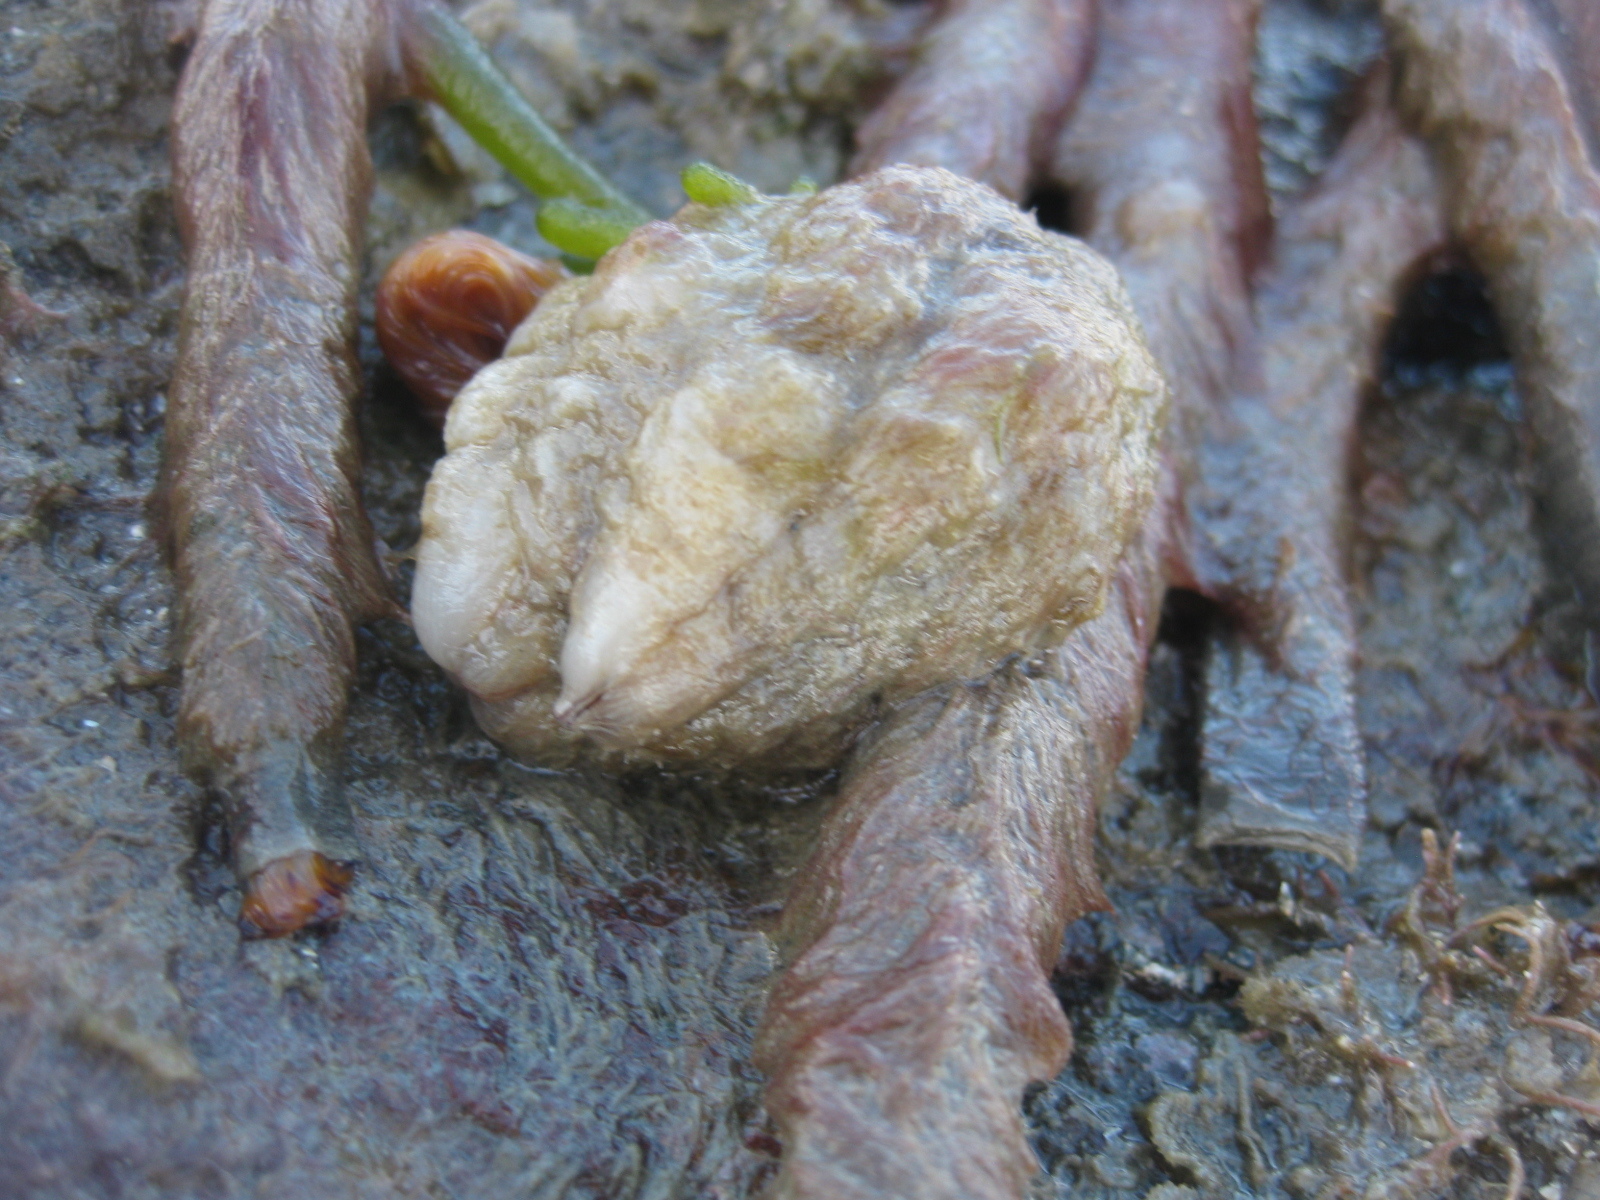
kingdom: Animalia
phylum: Chordata
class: Ascidiacea
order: Stolidobranchia
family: Styelidae
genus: Styela
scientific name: Styela plicata
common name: Pleated tunicate
